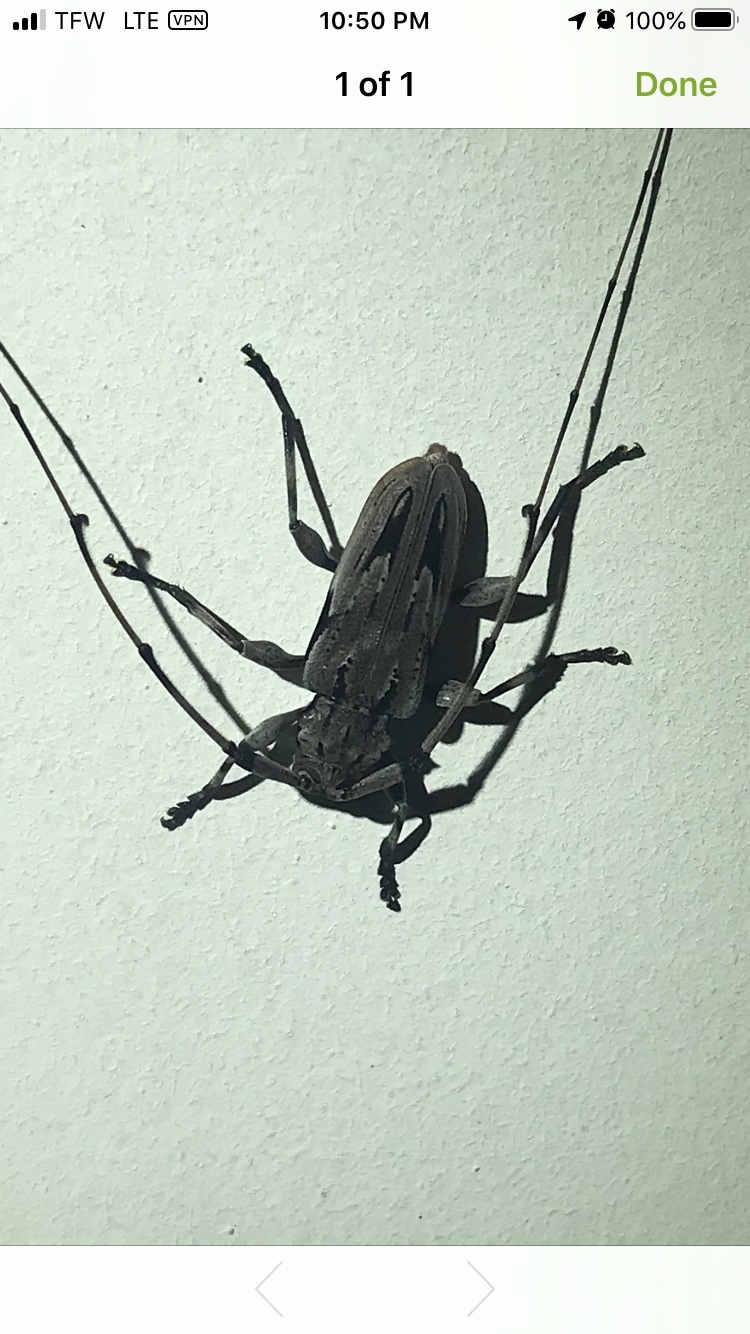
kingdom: Animalia
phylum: Arthropoda
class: Insecta
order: Coleoptera
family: Cerambycidae
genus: Acanthocinus
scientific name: Acanthocinus nodosus
